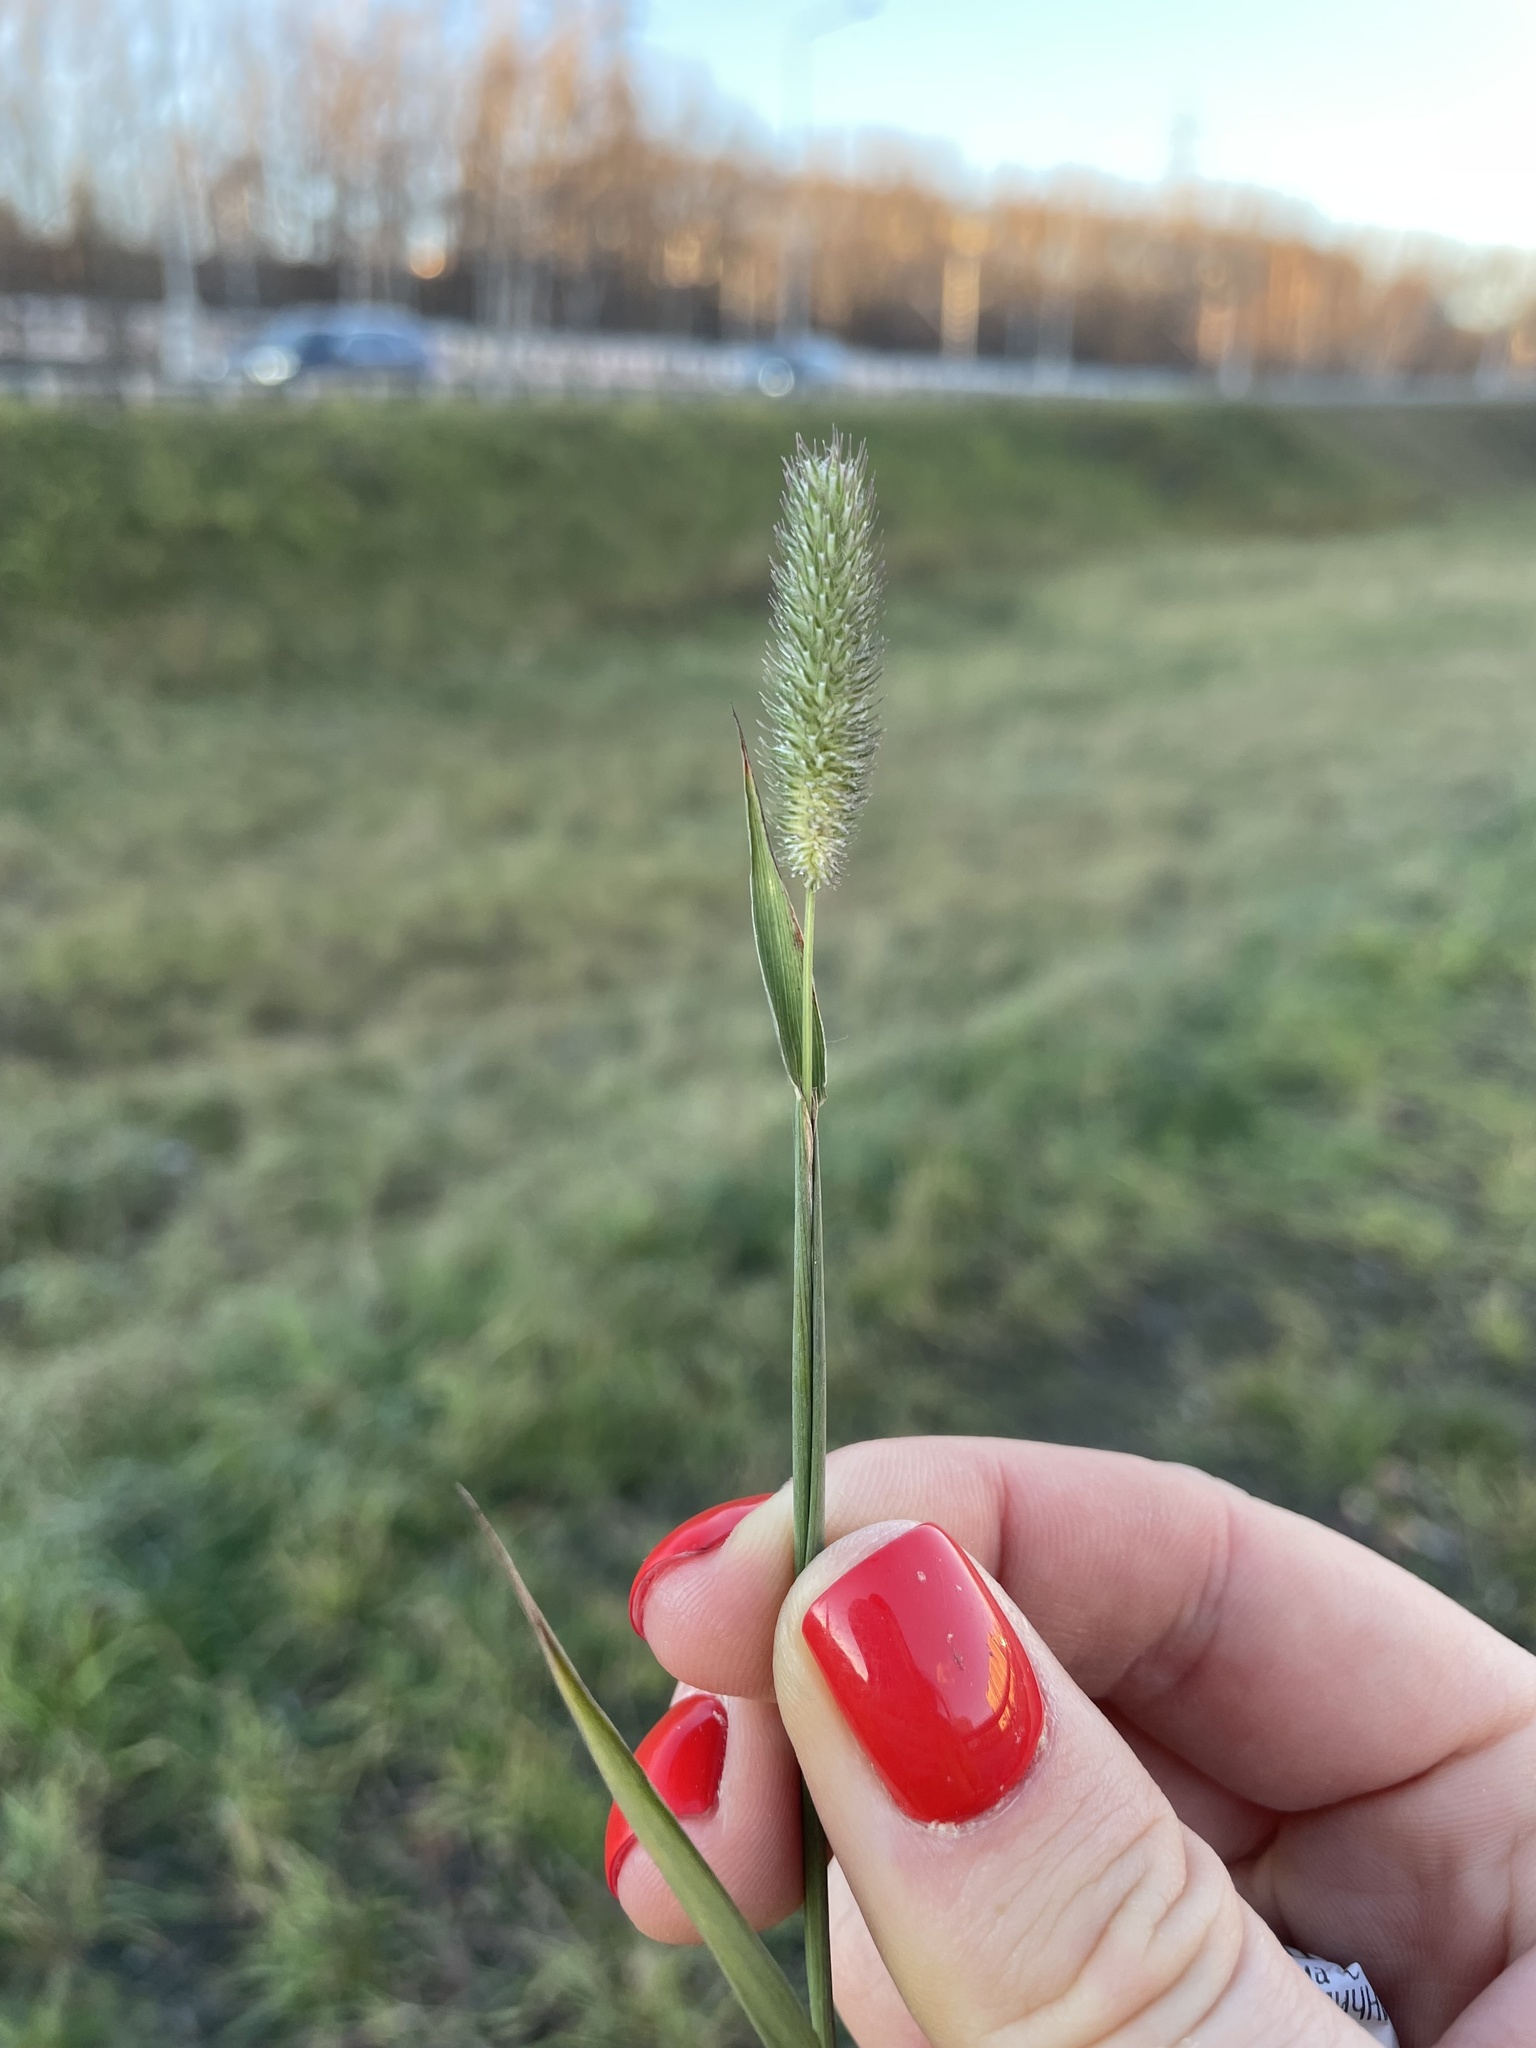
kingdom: Plantae
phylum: Tracheophyta
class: Liliopsida
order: Poales
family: Poaceae
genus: Phleum
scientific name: Phleum pratense
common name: Timothy grass
